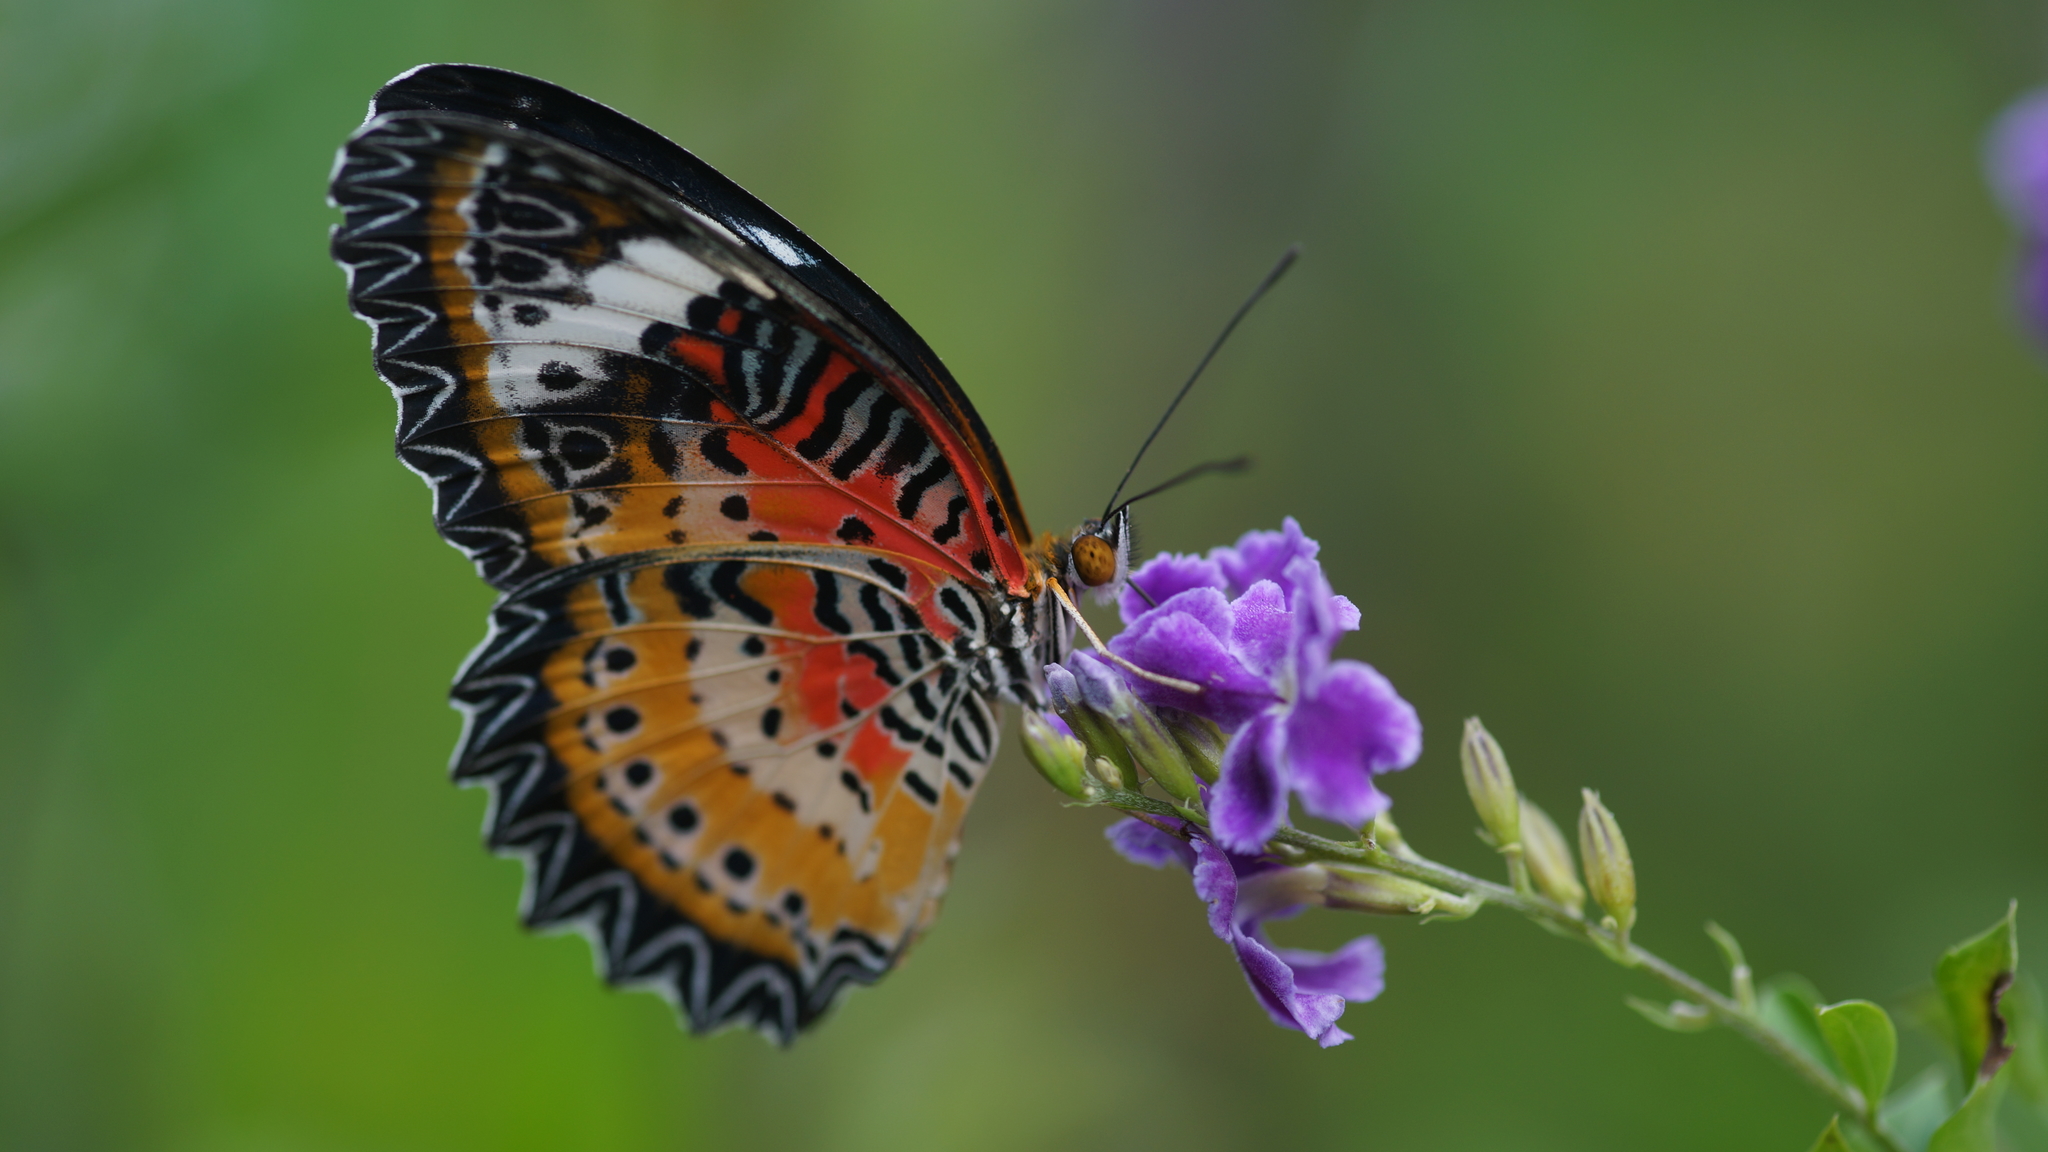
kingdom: Animalia
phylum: Arthropoda
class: Insecta
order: Lepidoptera
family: Nymphalidae
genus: Cethosia
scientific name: Cethosia cyane
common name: Leopard lacewing butterfly
